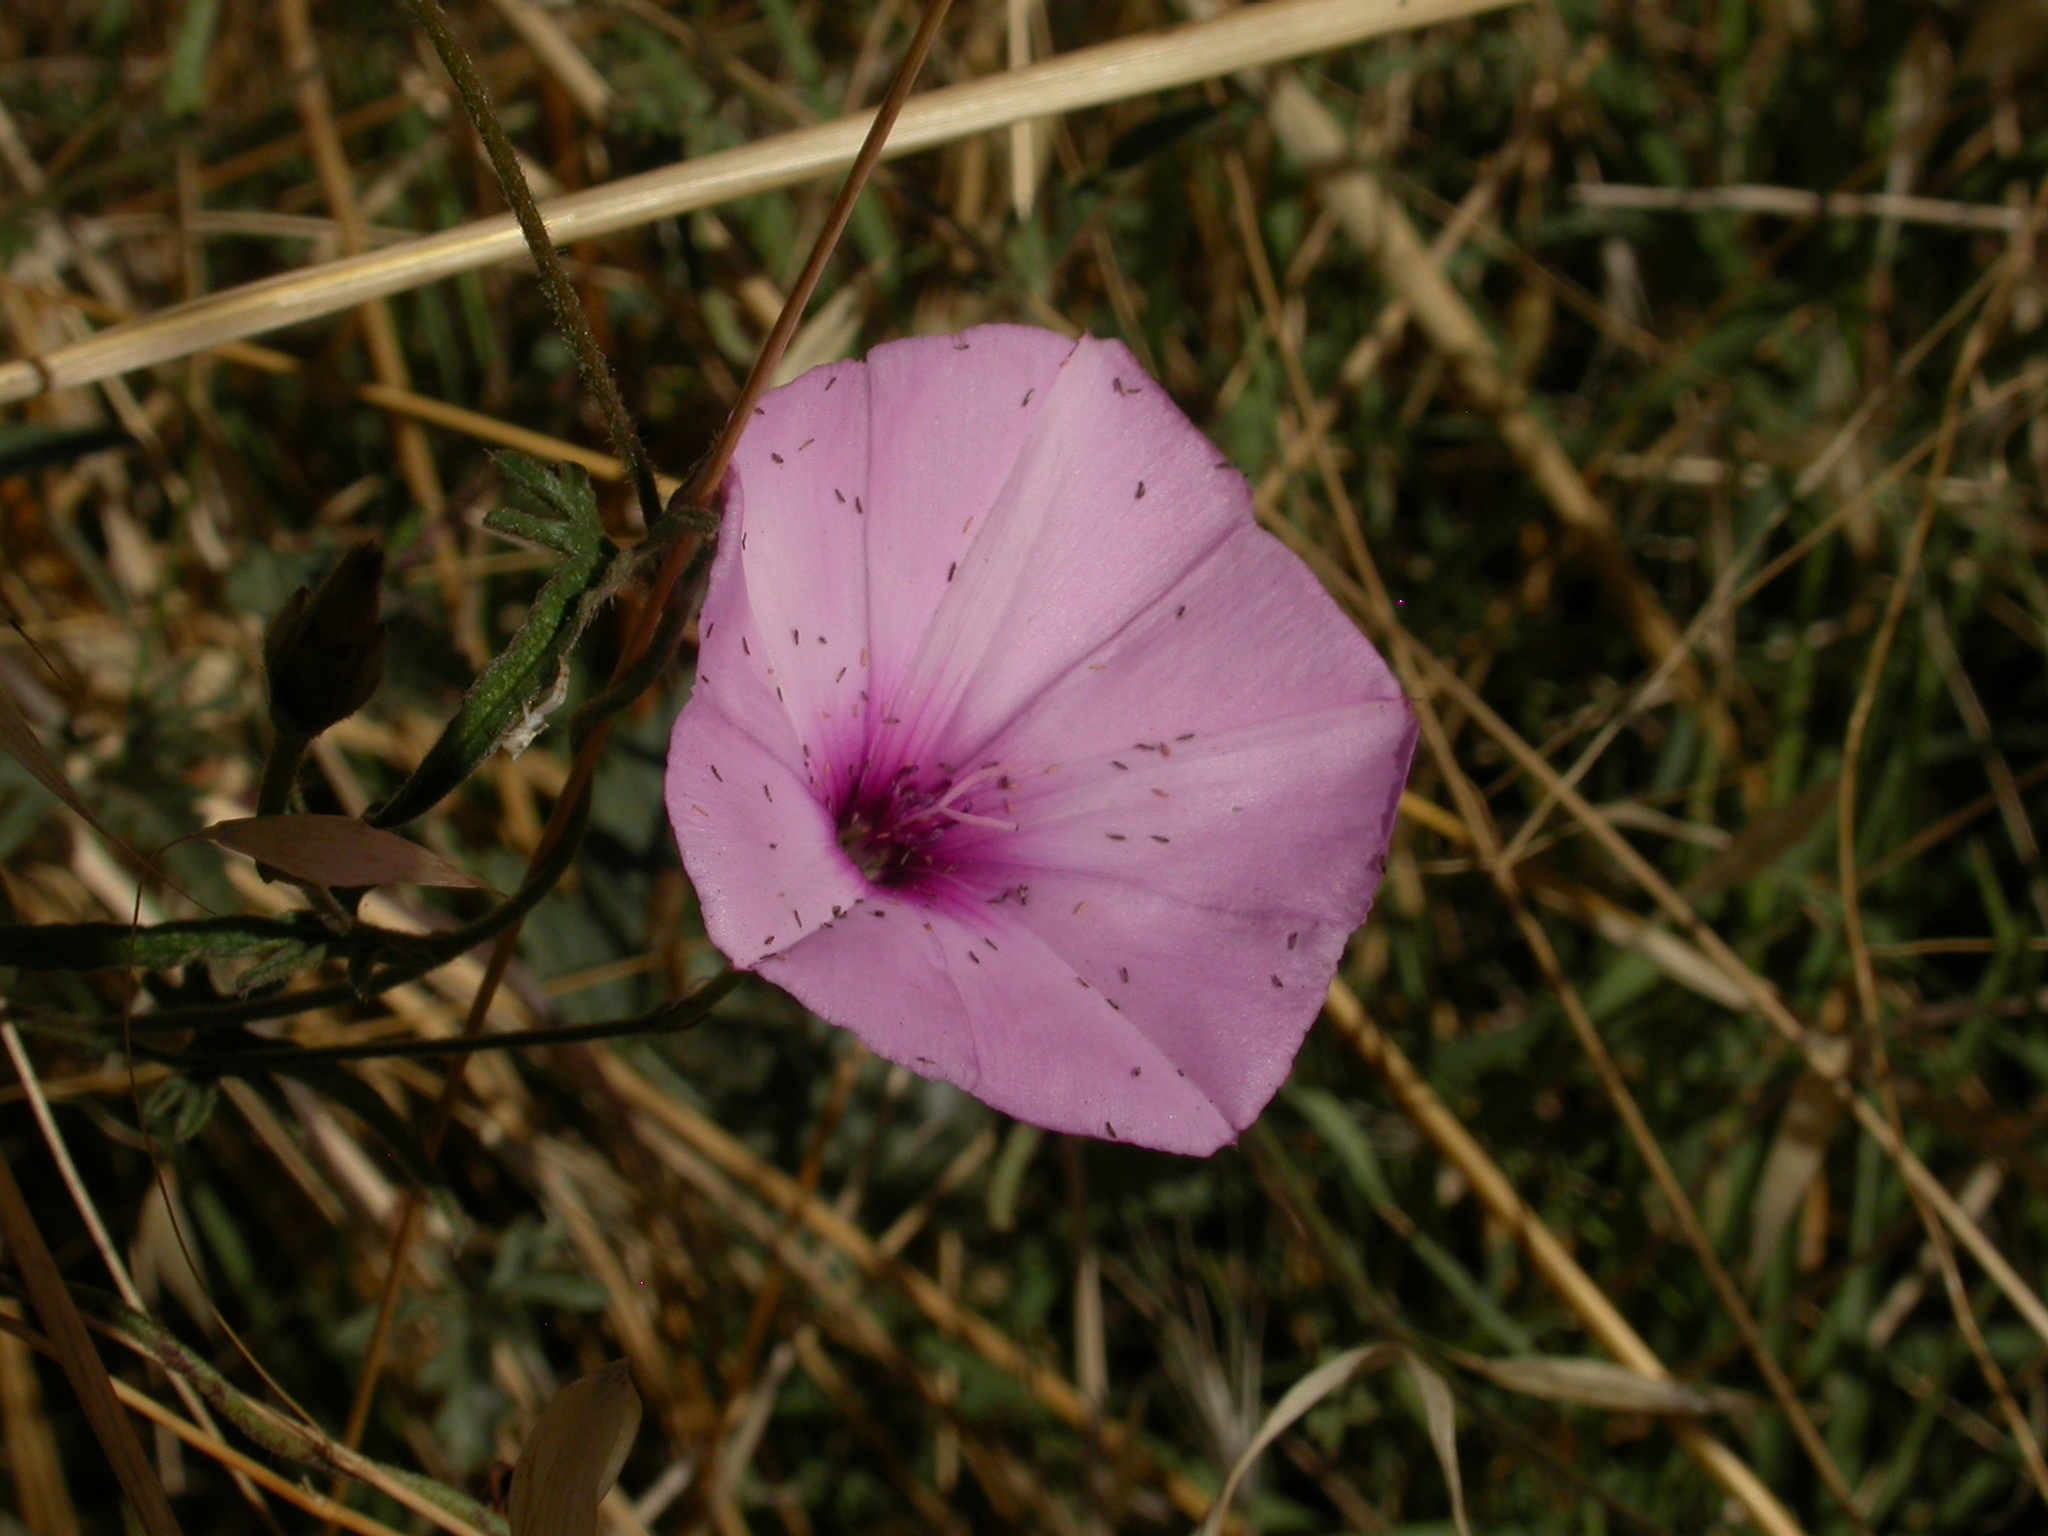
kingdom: Plantae
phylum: Tracheophyta
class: Magnoliopsida
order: Solanales
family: Convolvulaceae
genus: Convolvulus
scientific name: Convolvulus althaeoides
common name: Mallow bindweed
